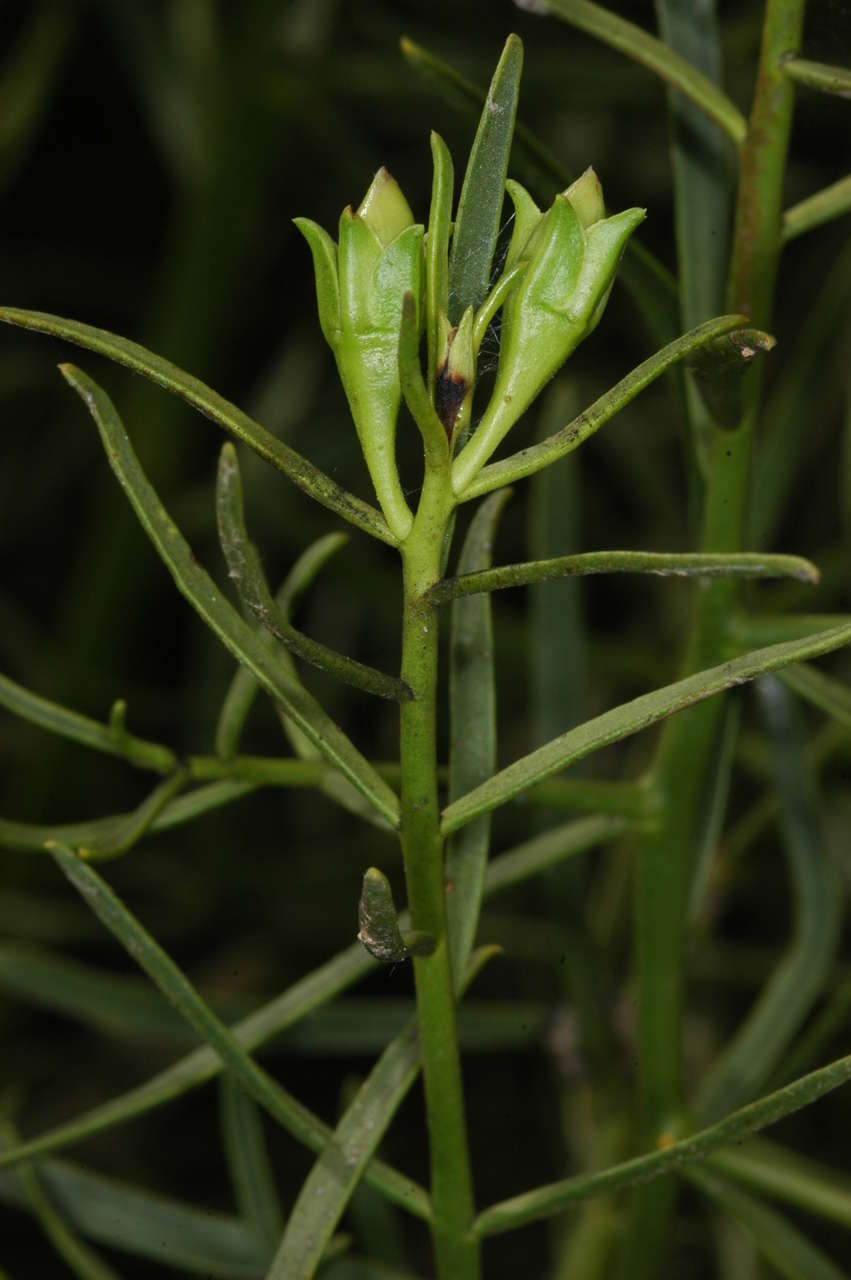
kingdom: Plantae
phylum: Tracheophyta
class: Magnoliopsida
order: Lamiales
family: Scrophulariaceae
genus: Eremophila
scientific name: Eremophila polyclada
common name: Lignum-fuchsia
